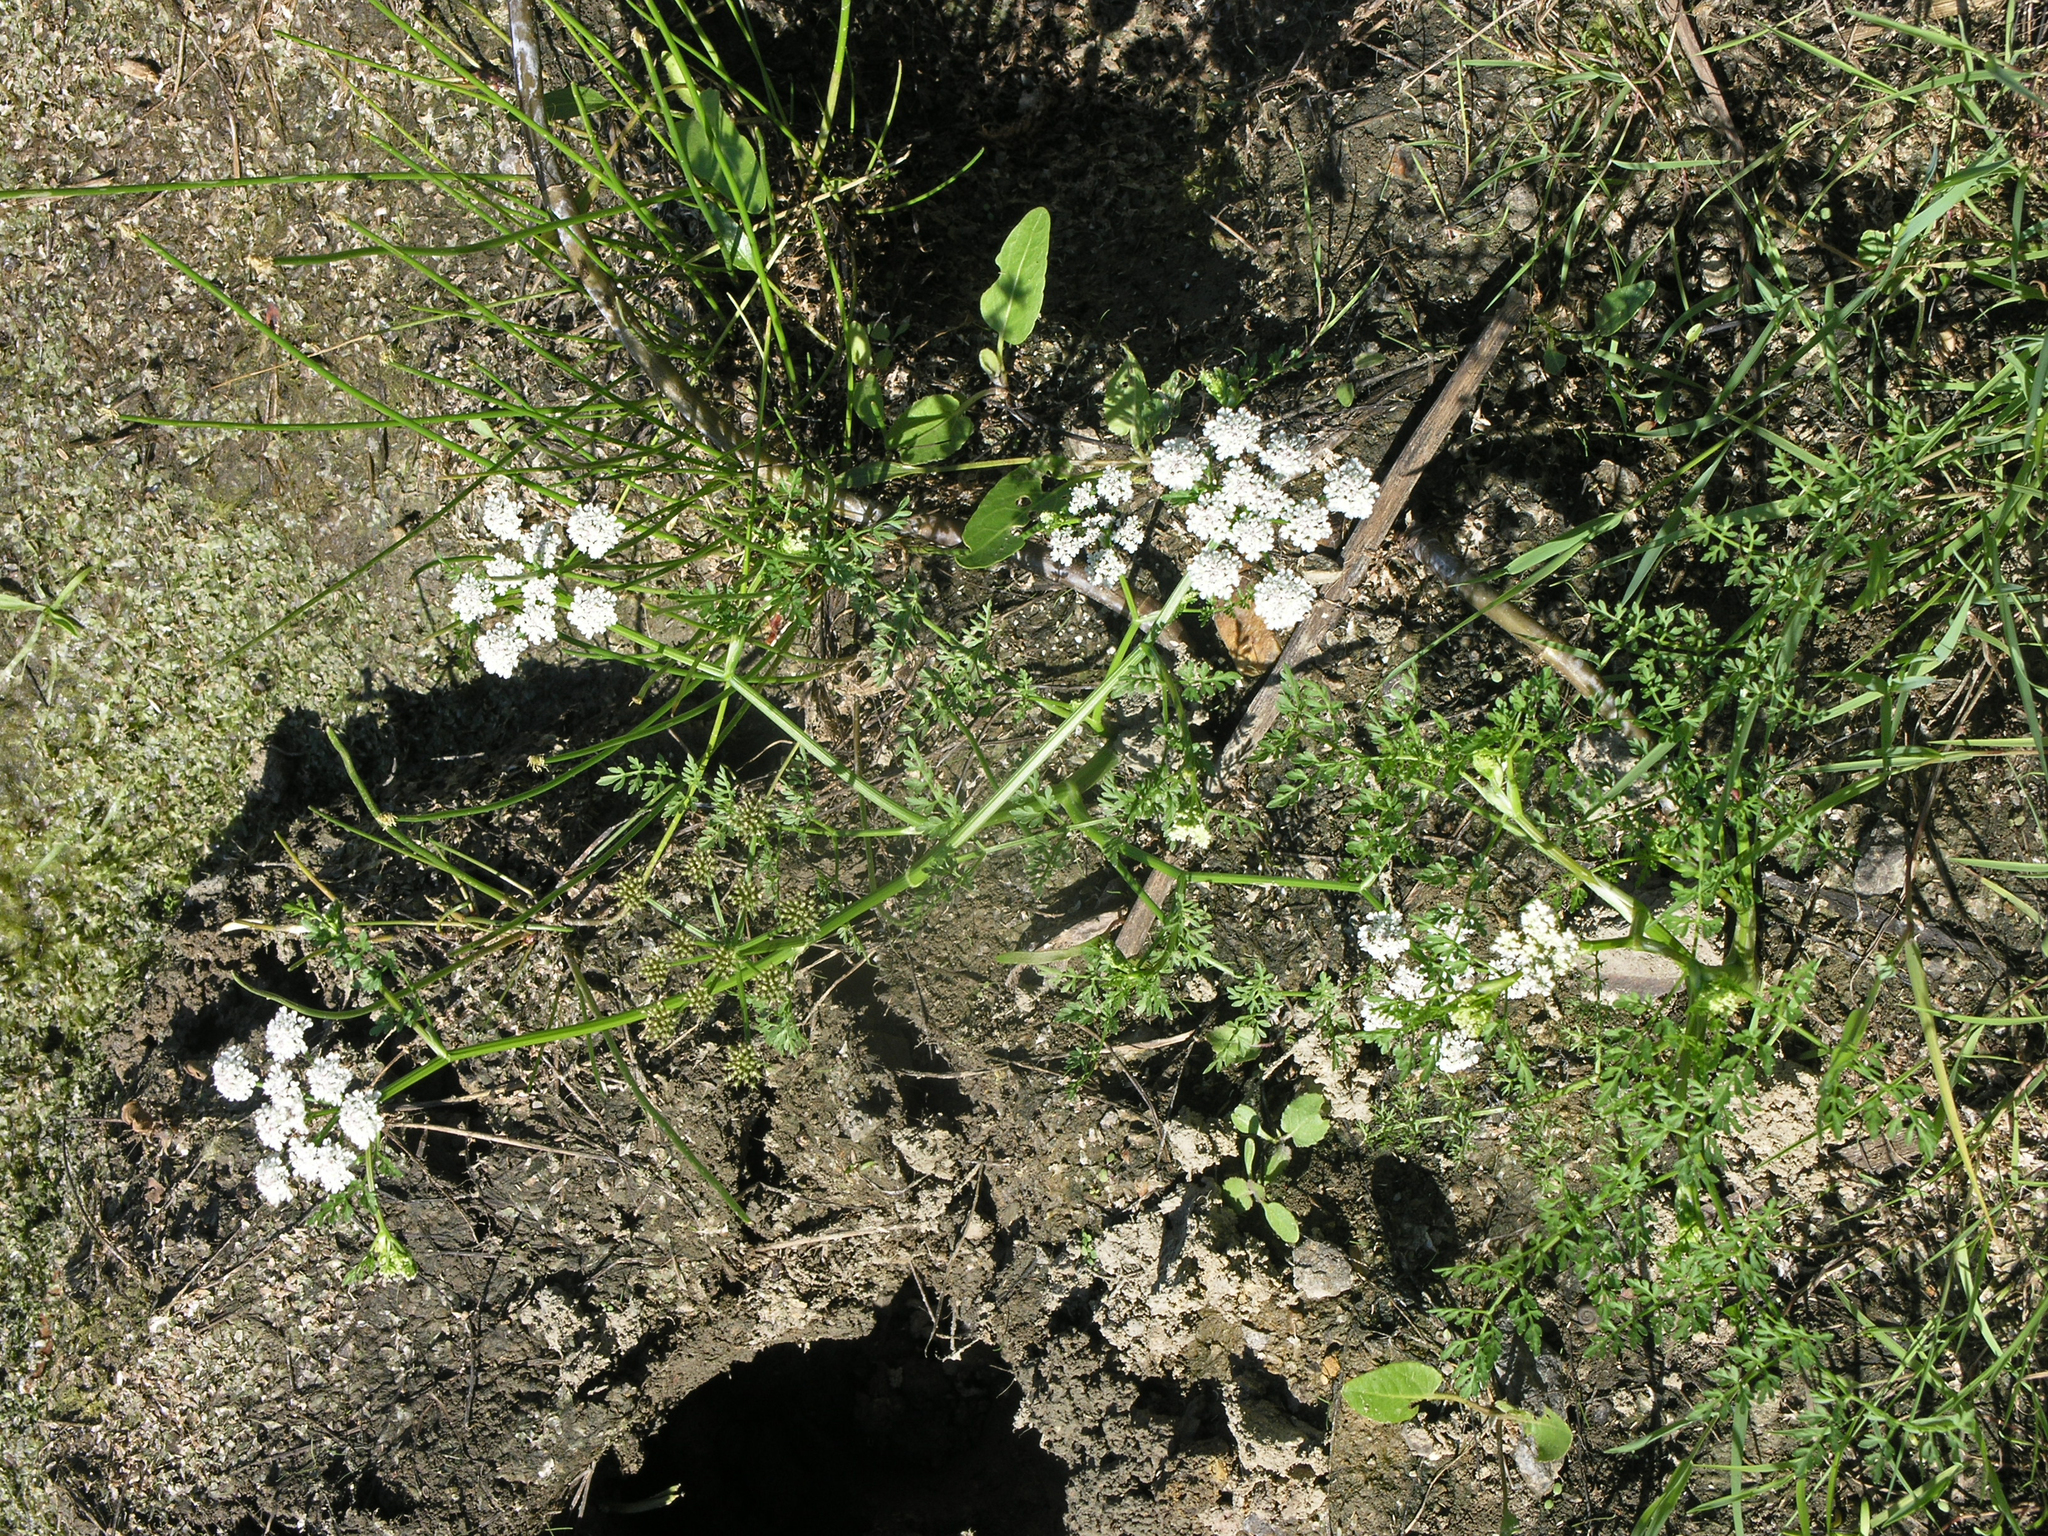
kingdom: Plantae
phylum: Tracheophyta
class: Magnoliopsida
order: Apiales
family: Apiaceae
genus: Oenanthe
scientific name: Oenanthe aquatica
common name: Fine-leaved water-dropwort
